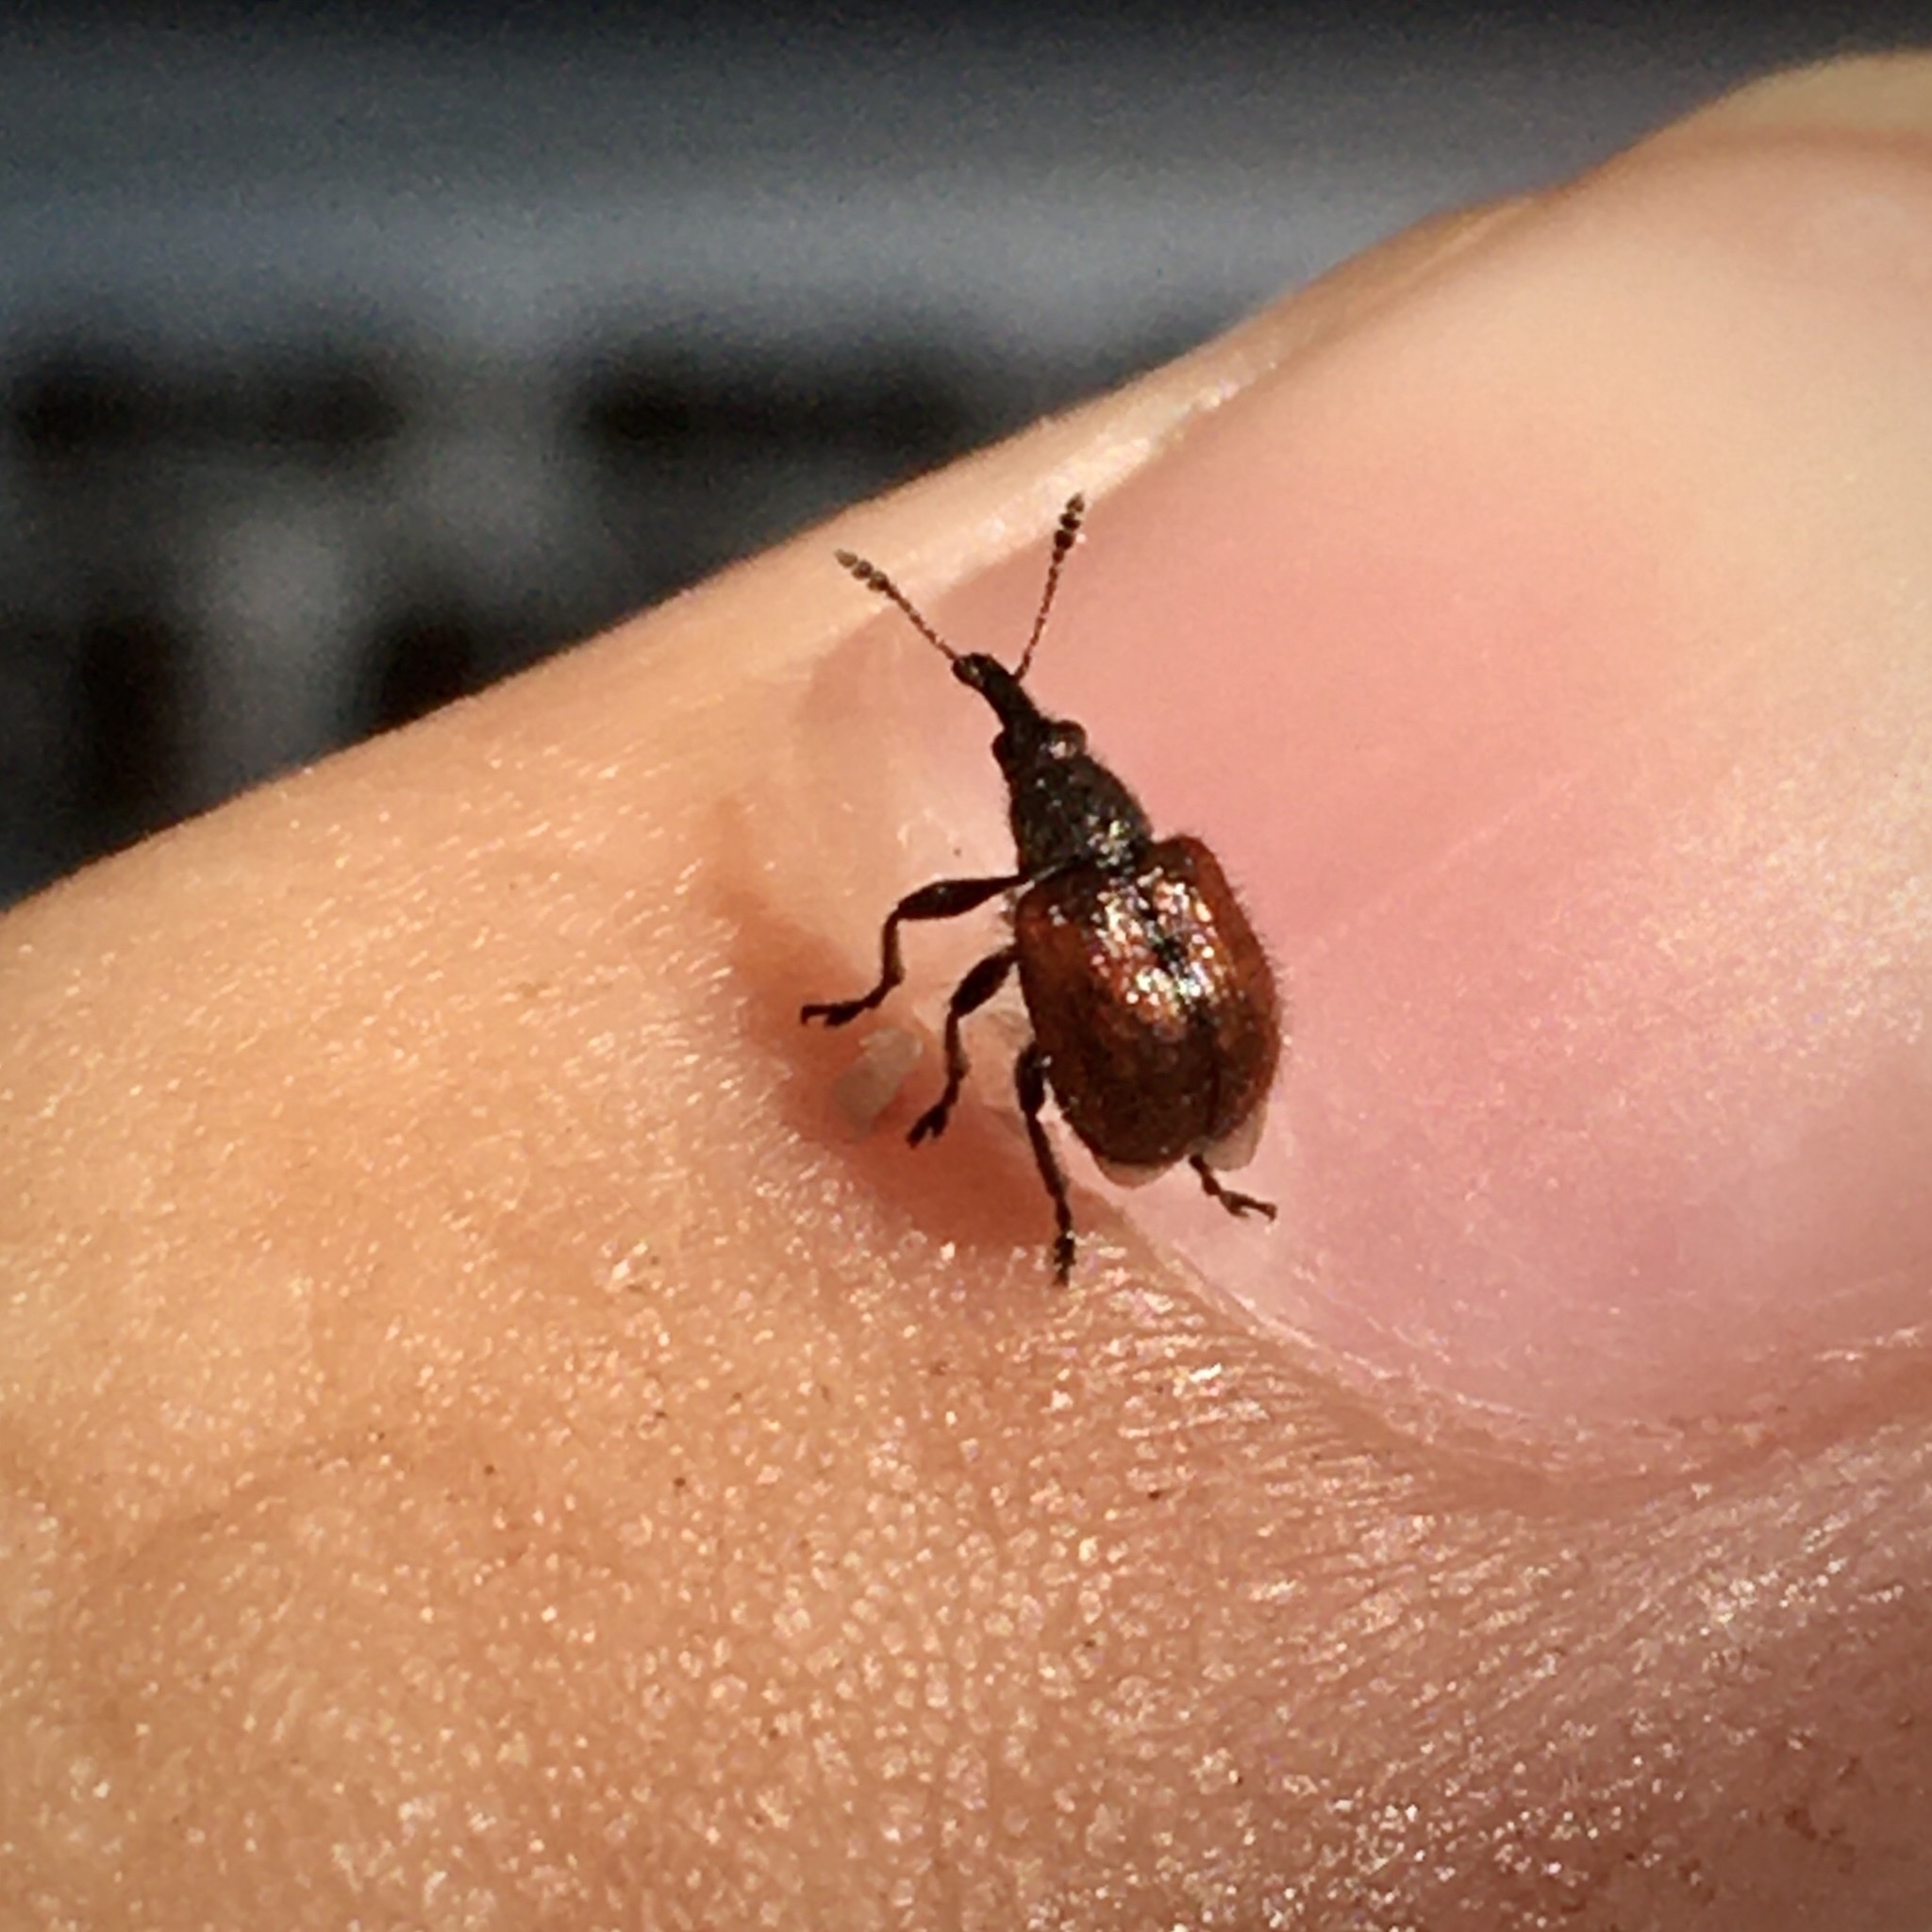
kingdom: Animalia
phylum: Arthropoda
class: Insecta
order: Coleoptera
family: Rhynchitidae
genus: Tatianaerhynchites
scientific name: Tatianaerhynchites aequatus
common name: Apple fruit rhynchites
